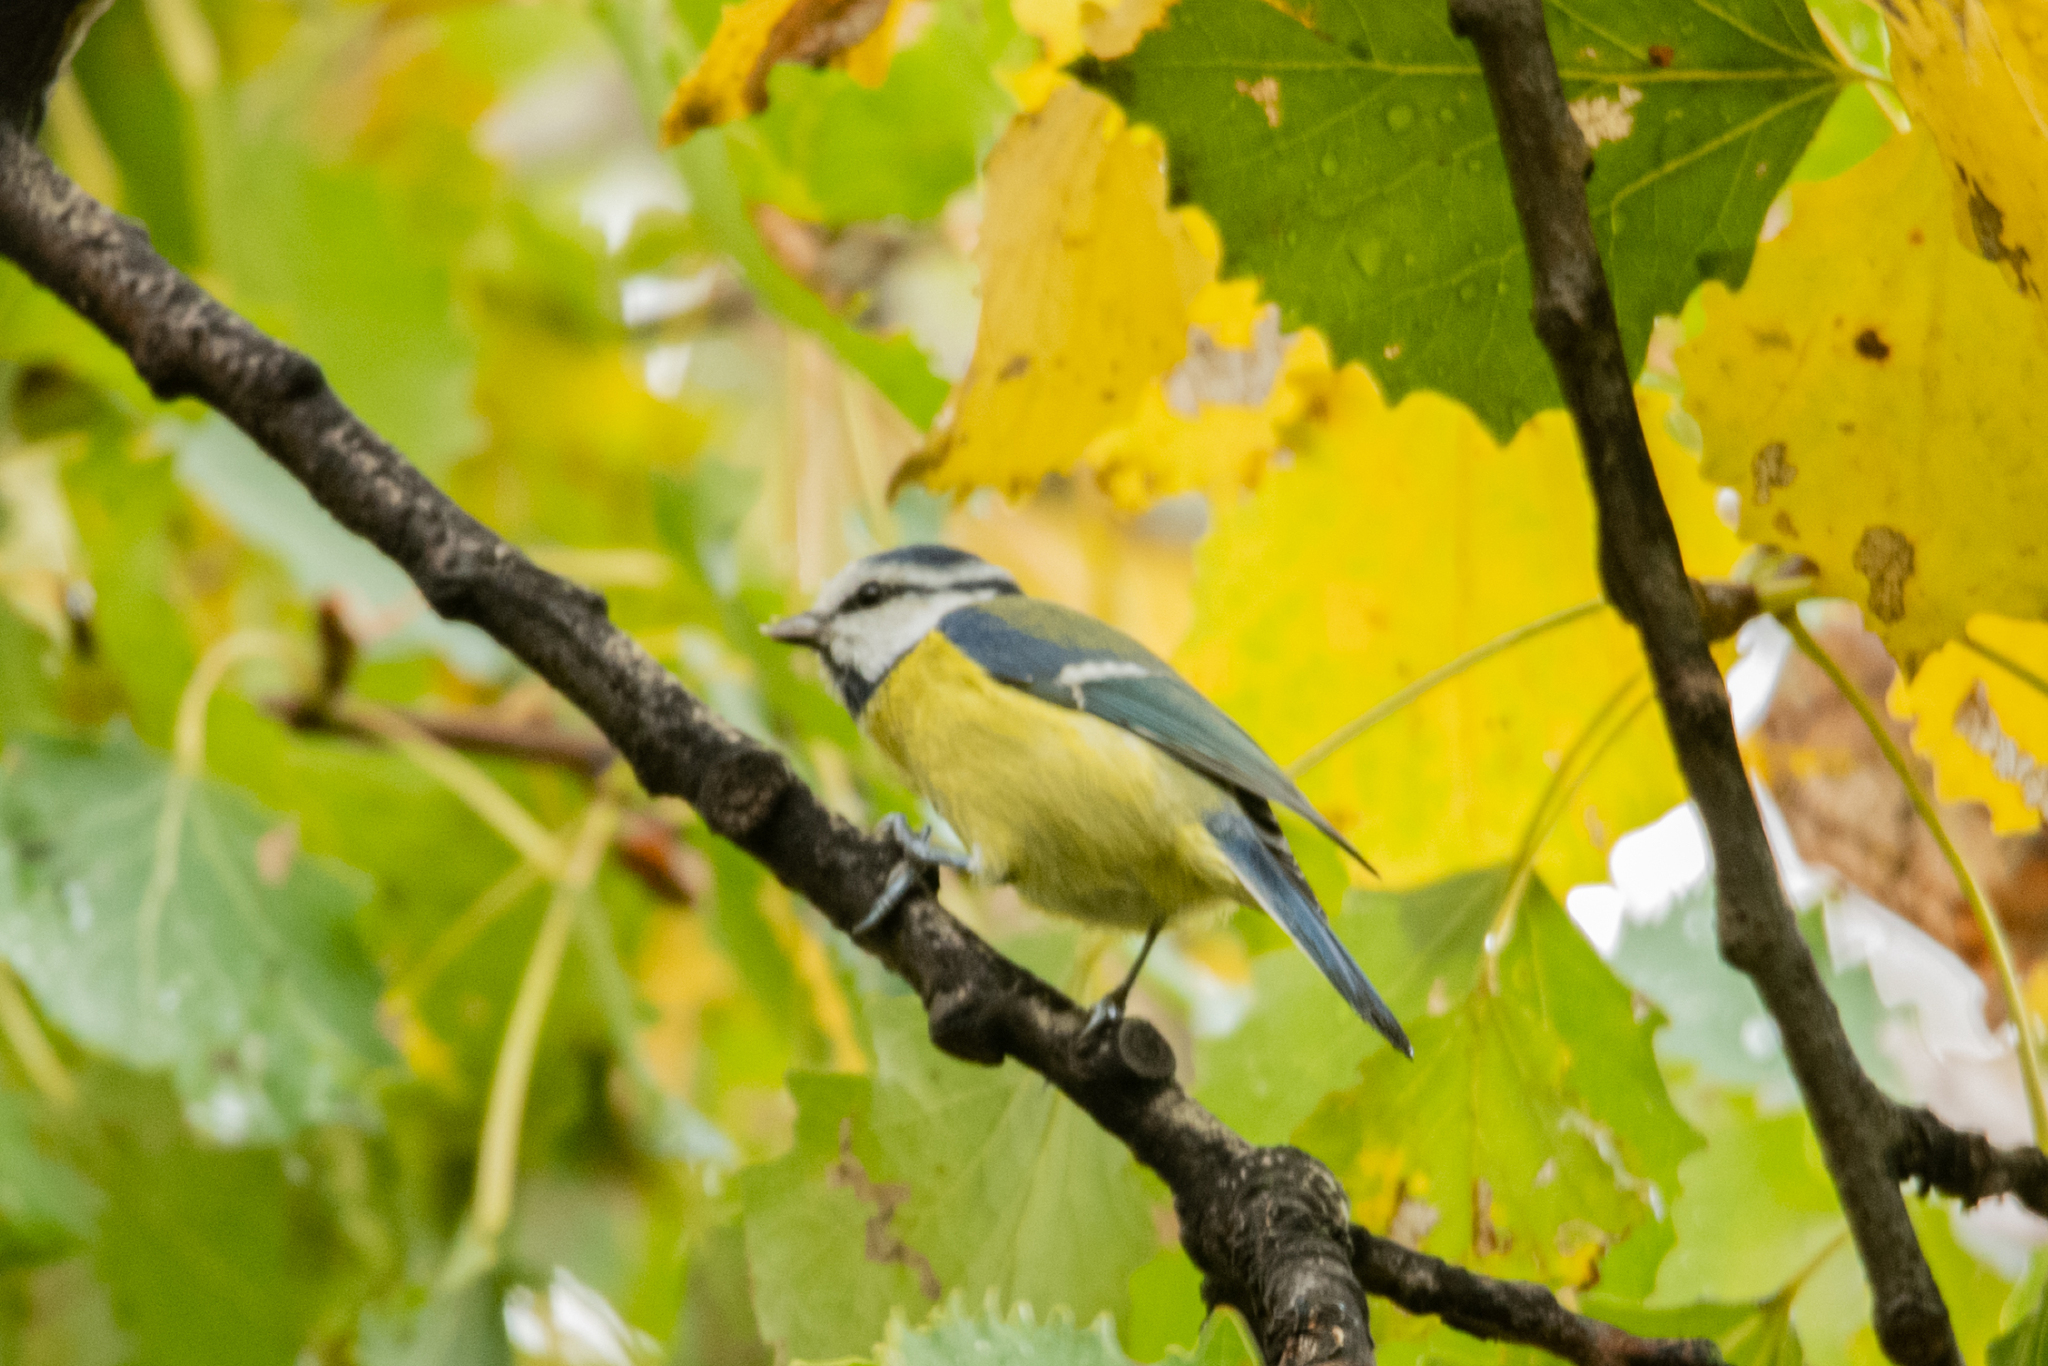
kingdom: Animalia
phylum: Chordata
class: Aves
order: Passeriformes
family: Paridae
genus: Cyanistes
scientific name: Cyanistes caeruleus
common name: Eurasian blue tit
